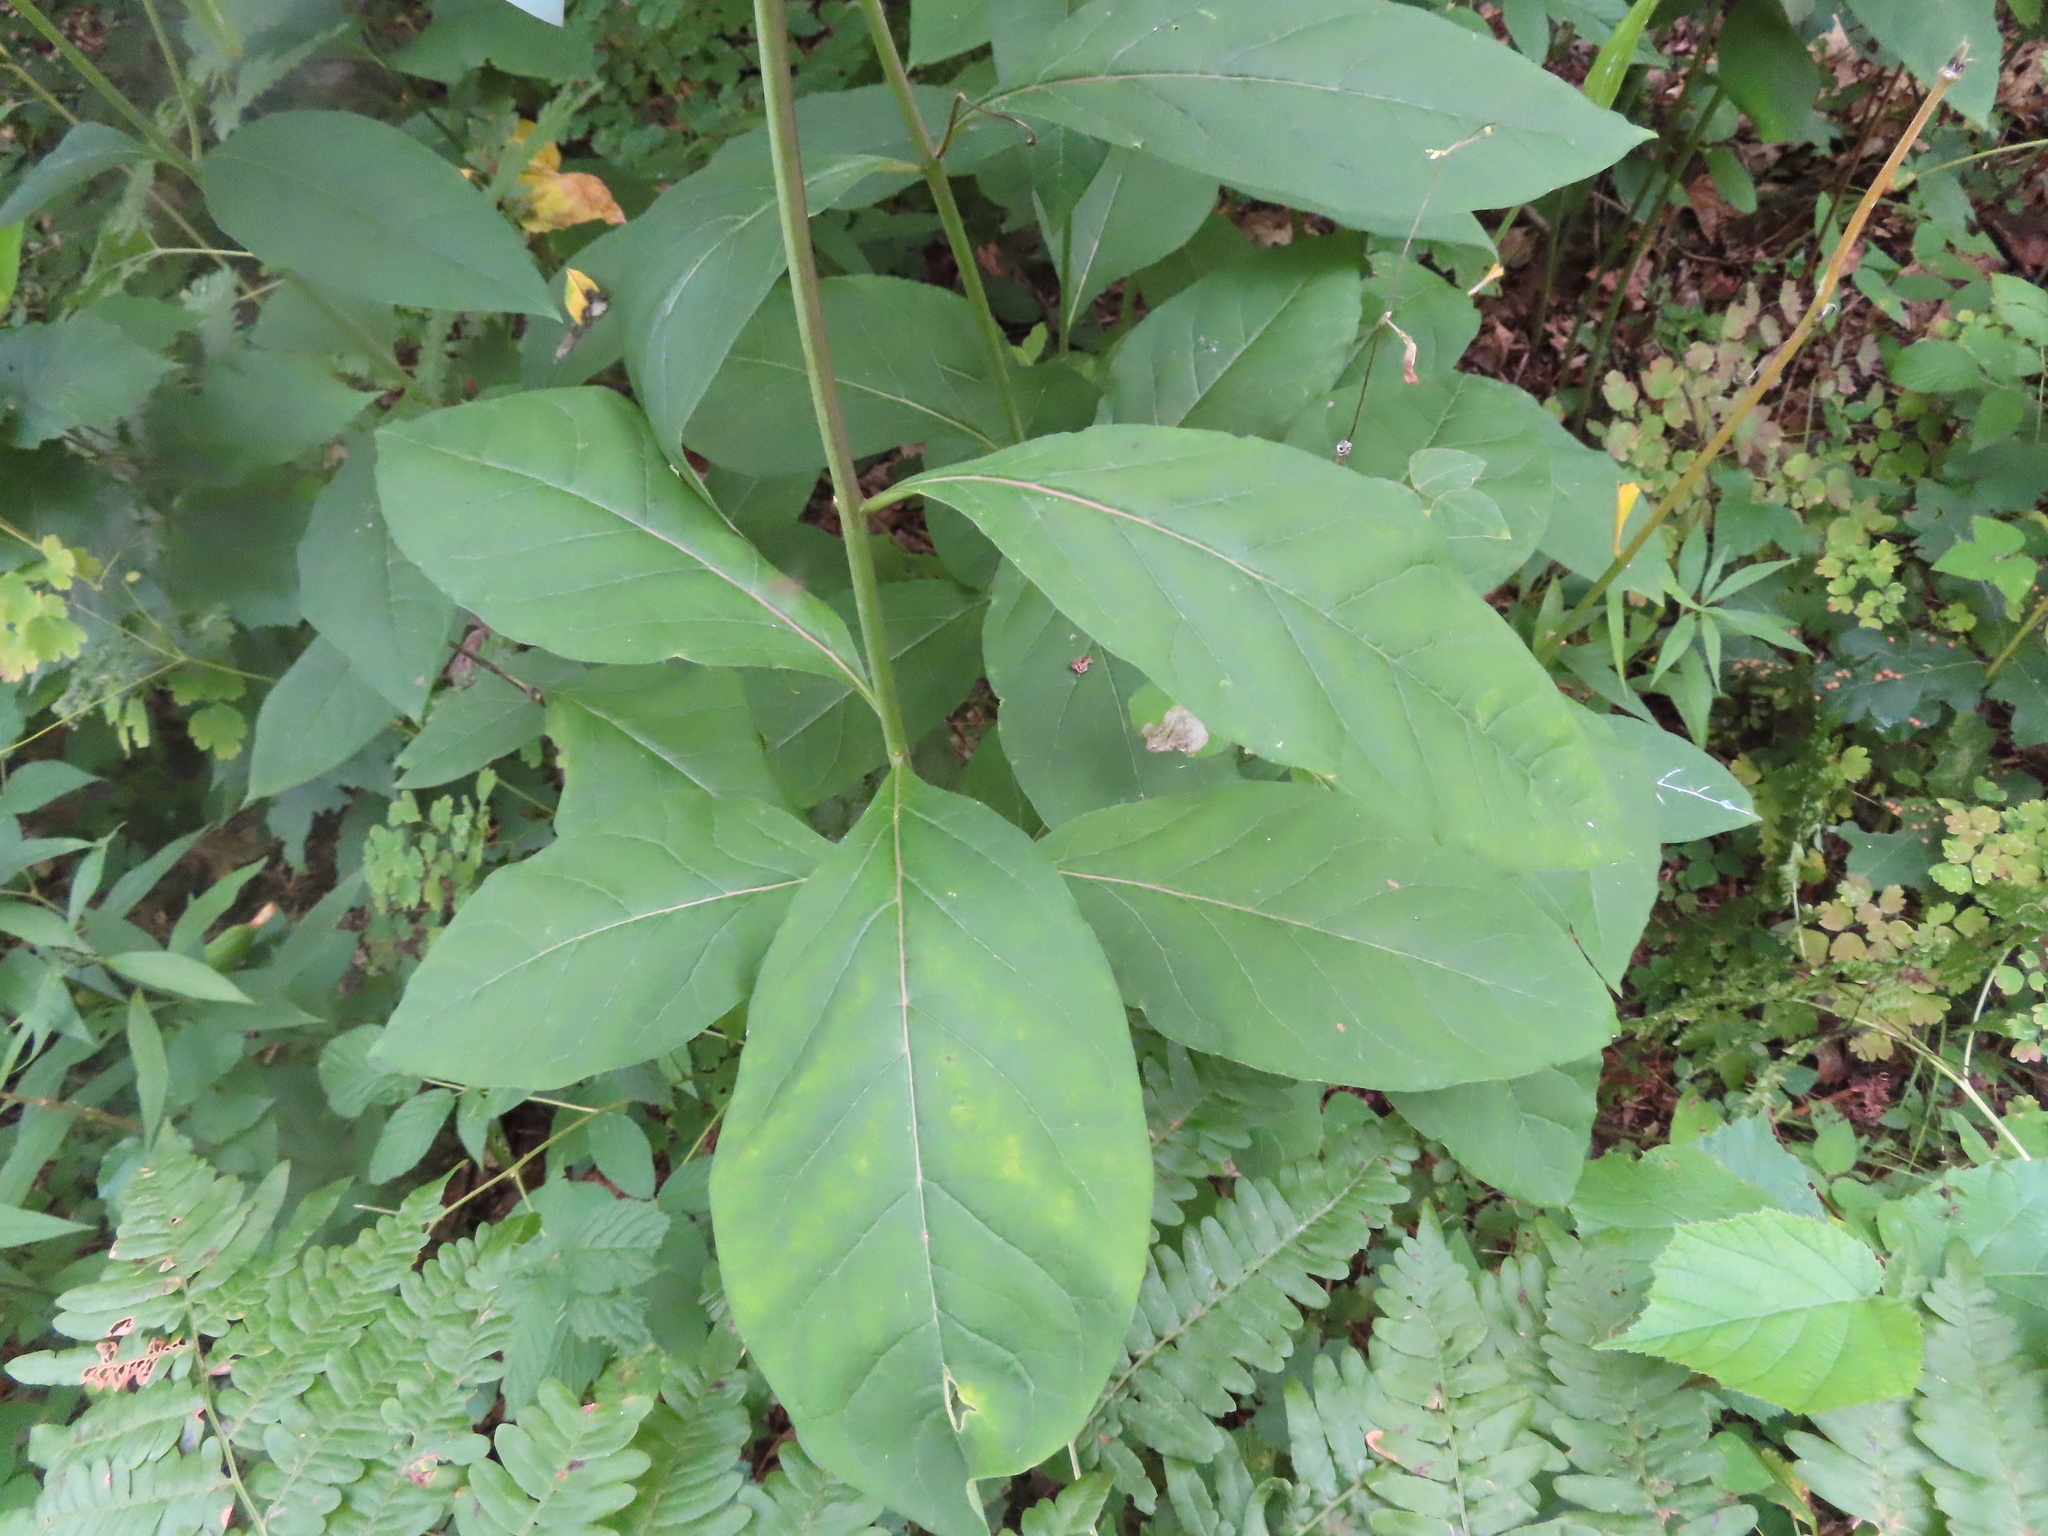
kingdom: Plantae
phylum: Tracheophyta
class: Magnoliopsida
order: Gentianales
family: Apocynaceae
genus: Asclepias
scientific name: Asclepias exaltata
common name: Poke milkweed
